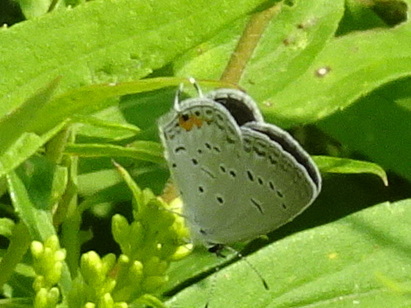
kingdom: Animalia
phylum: Arthropoda
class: Insecta
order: Lepidoptera
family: Lycaenidae
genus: Elkalyce
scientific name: Elkalyce comyntas
